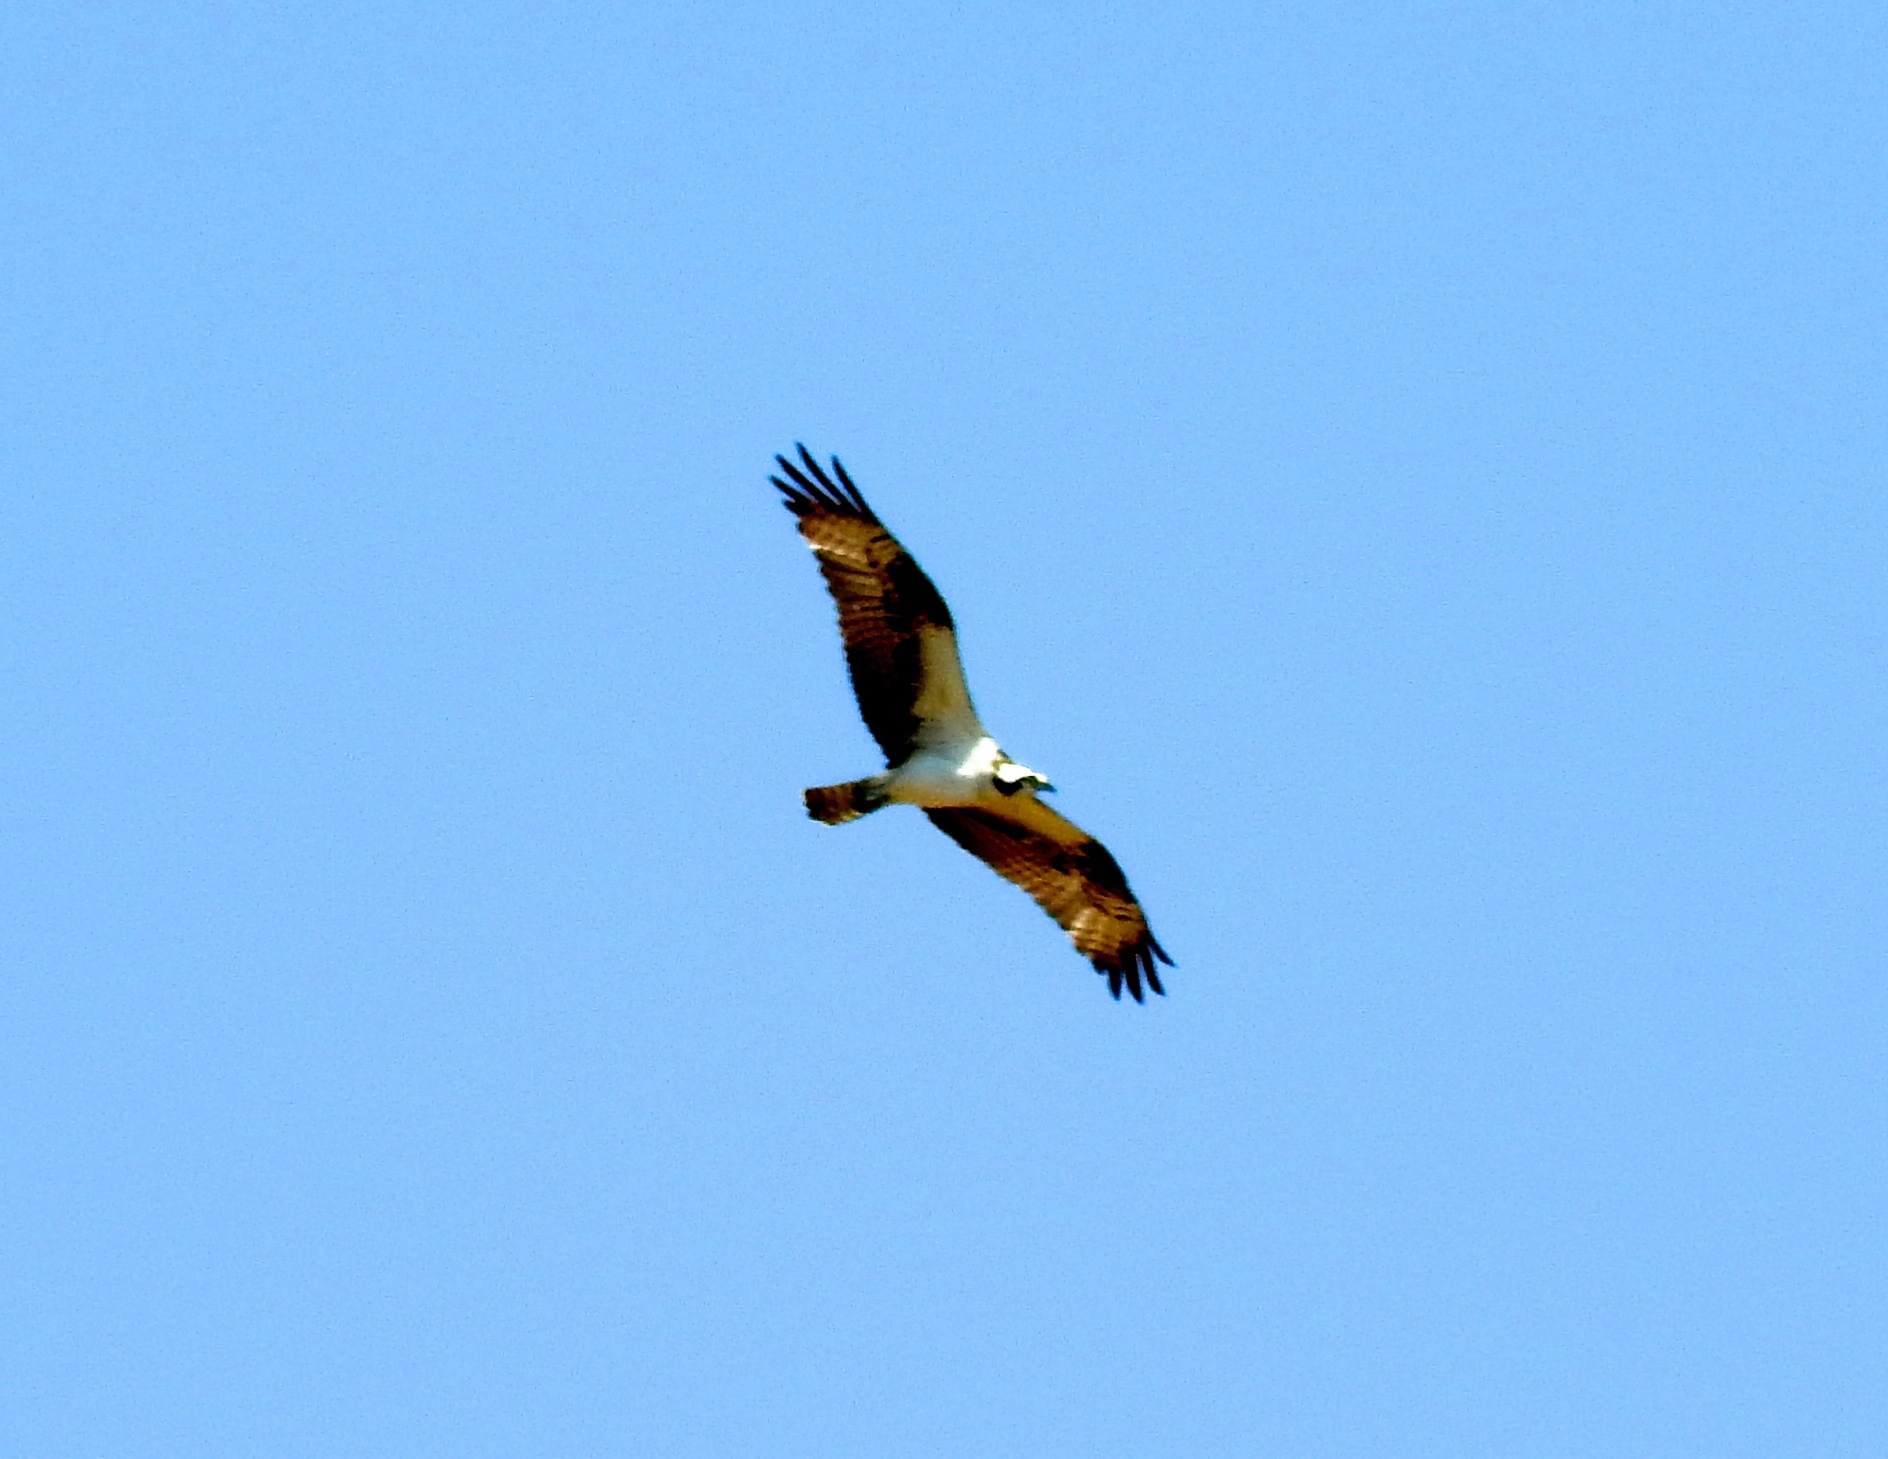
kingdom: Animalia
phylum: Chordata
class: Aves
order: Accipitriformes
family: Pandionidae
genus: Pandion
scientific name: Pandion haliaetus
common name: Osprey
